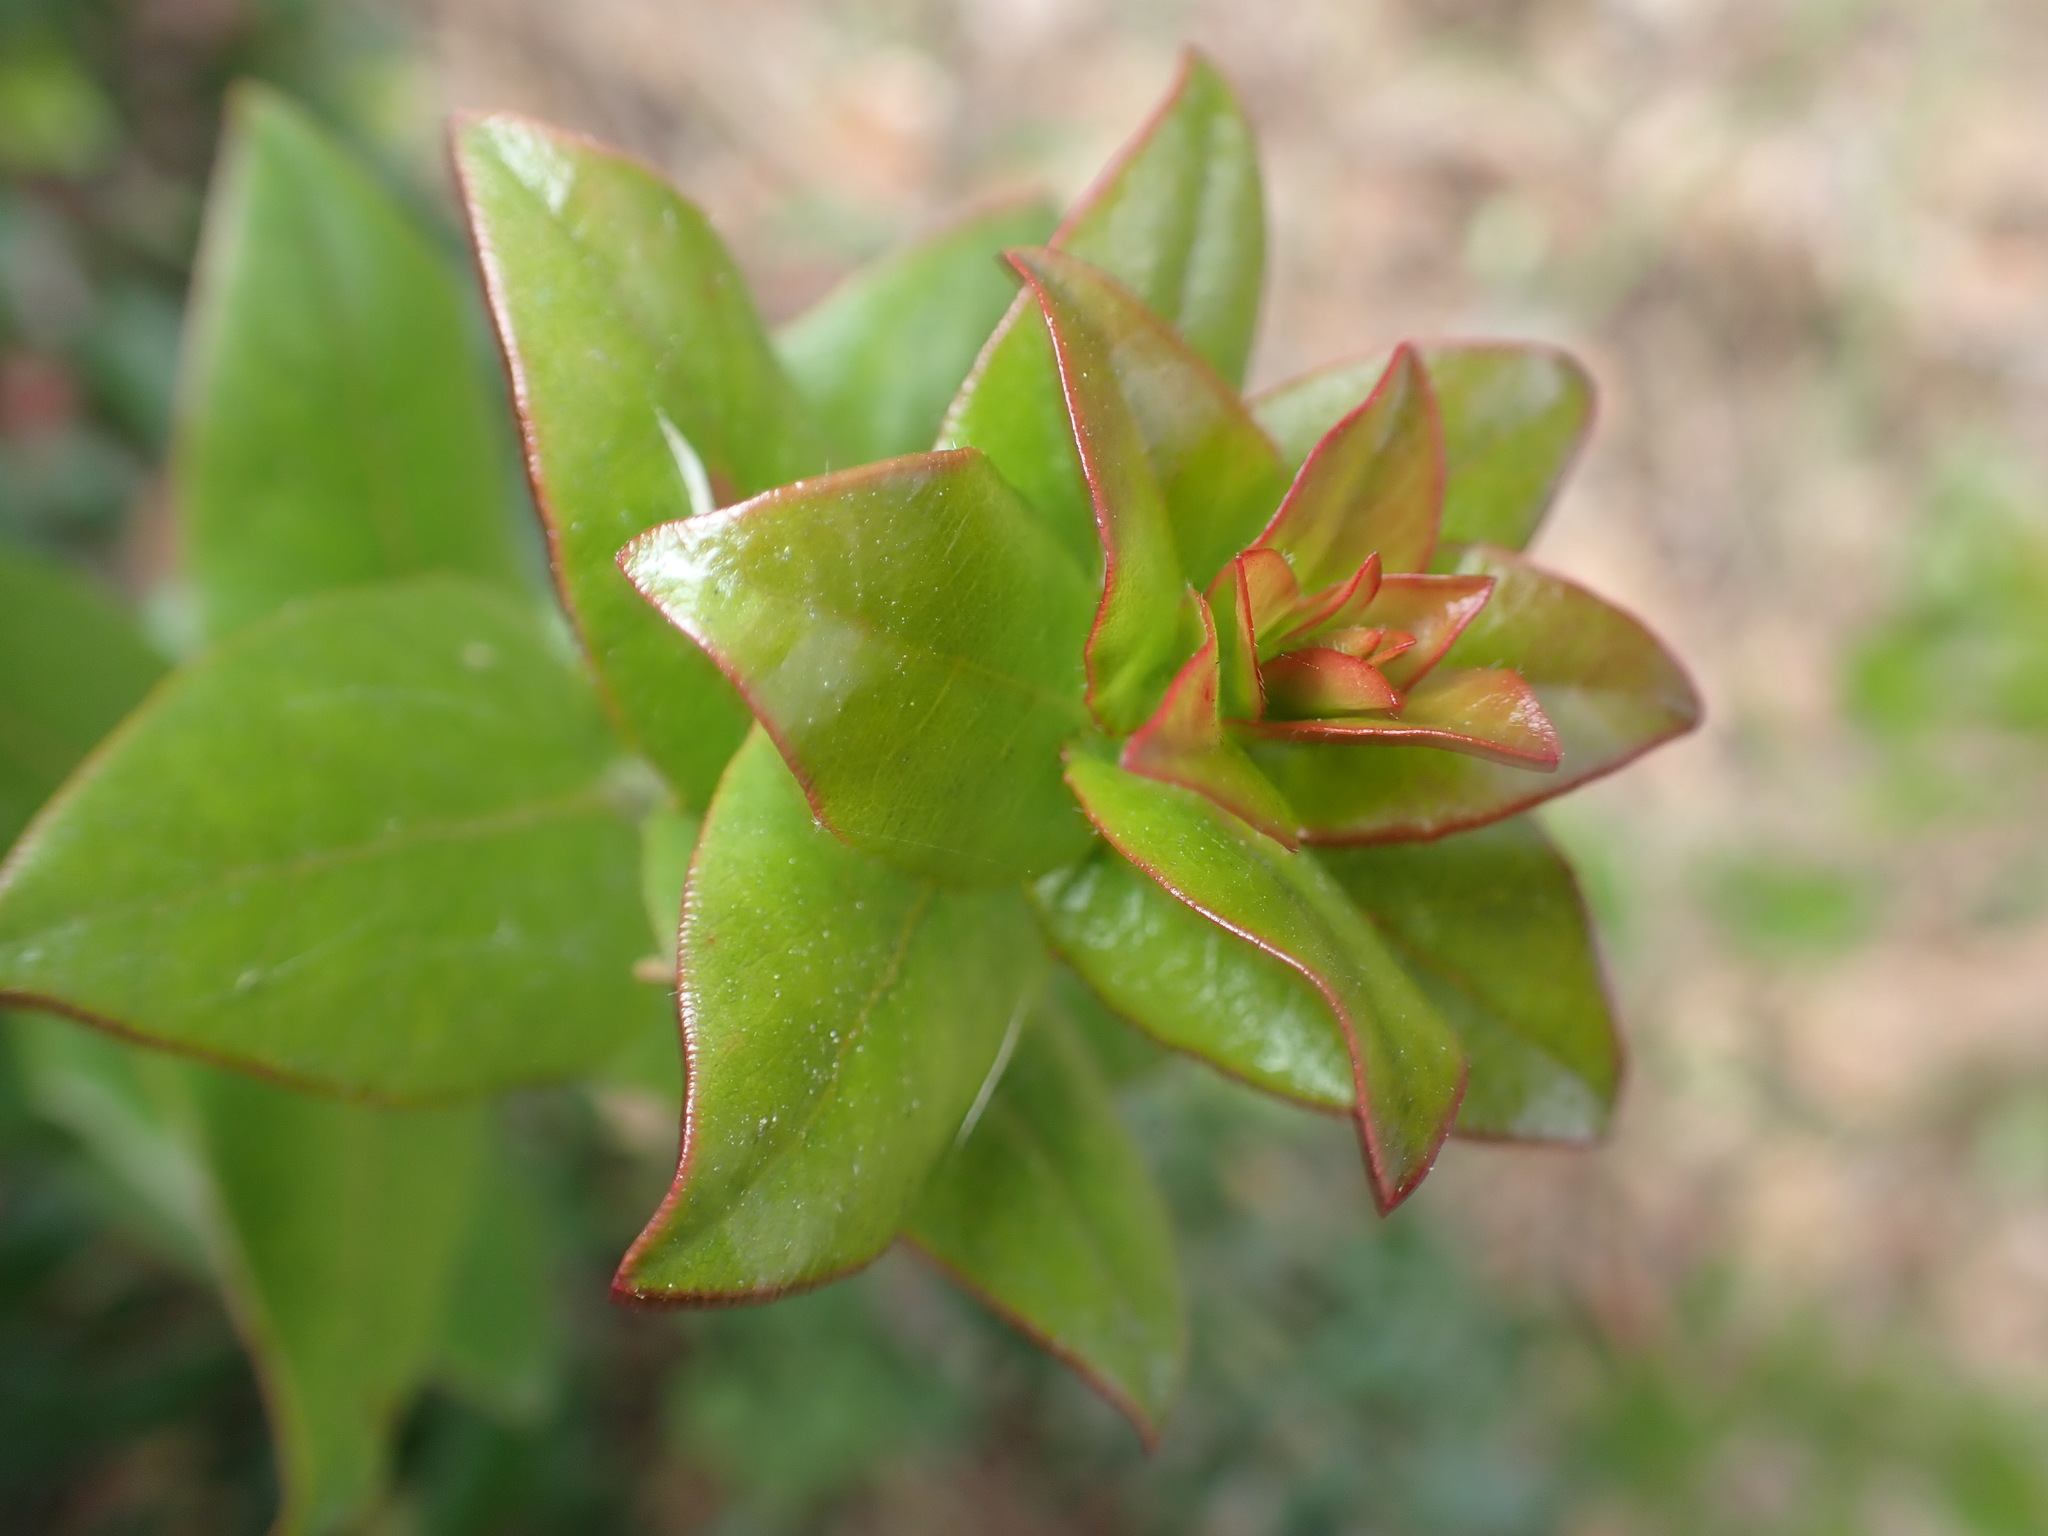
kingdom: Plantae
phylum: Tracheophyta
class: Magnoliopsida
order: Ericales
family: Ericaceae
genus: Arctostaphylos
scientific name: Arctostaphylos pajaroensis
